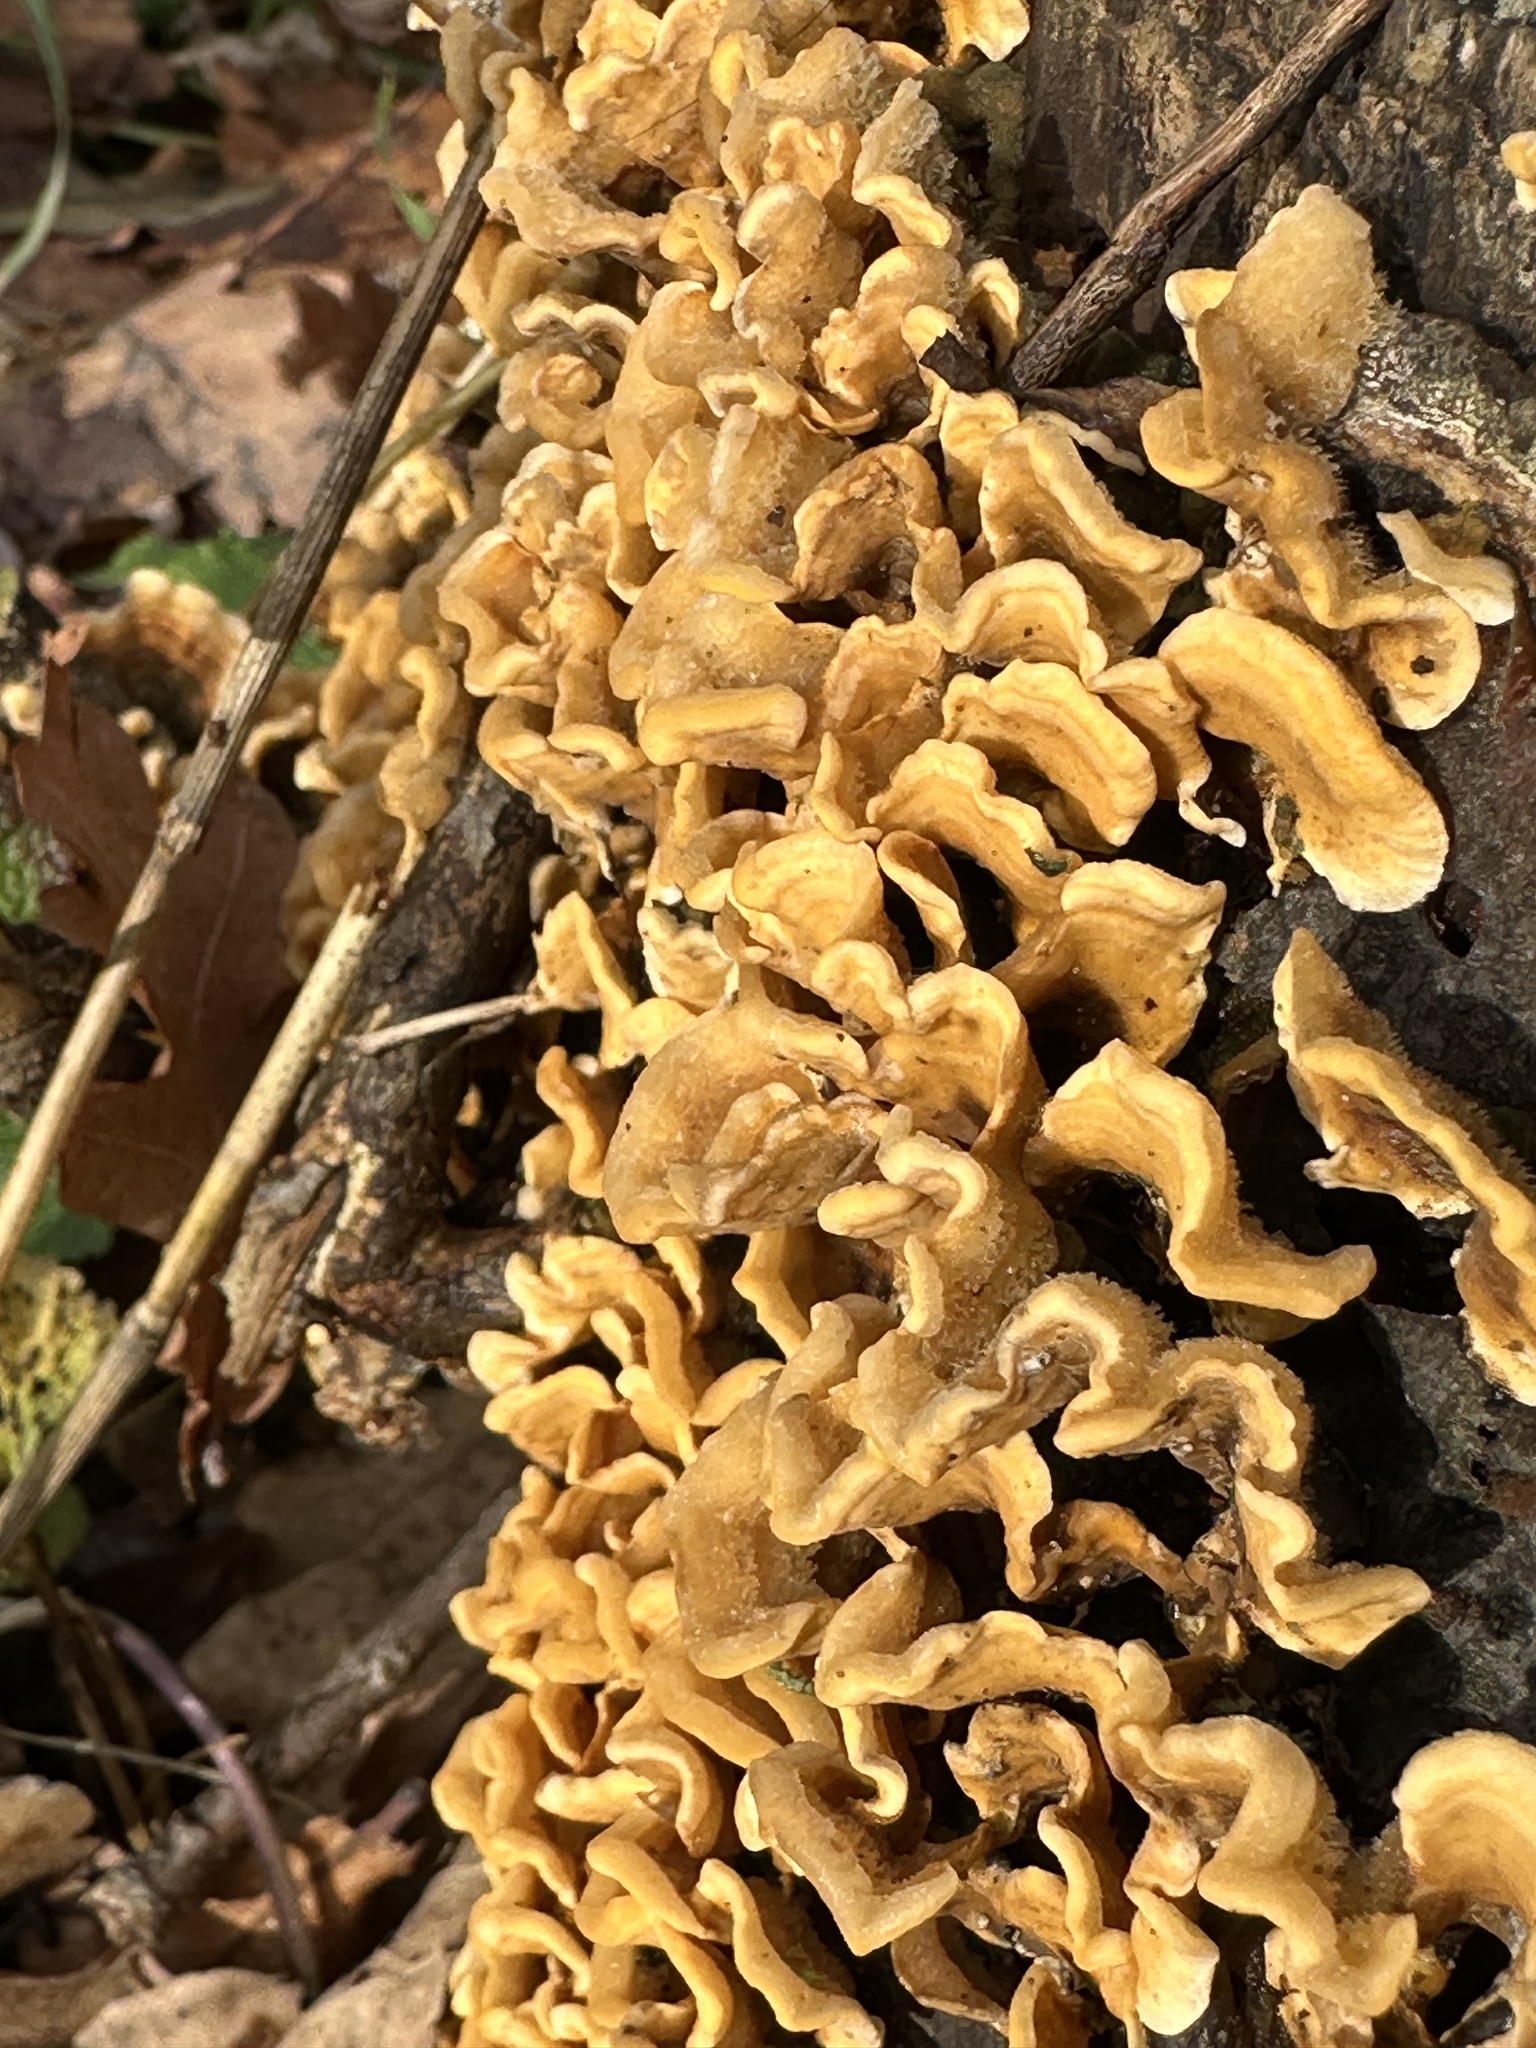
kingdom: Fungi
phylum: Basidiomycota
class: Agaricomycetes
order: Russulales
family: Stereaceae
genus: Stereum
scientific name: Stereum hirsutum
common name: Hairy curtain crust
